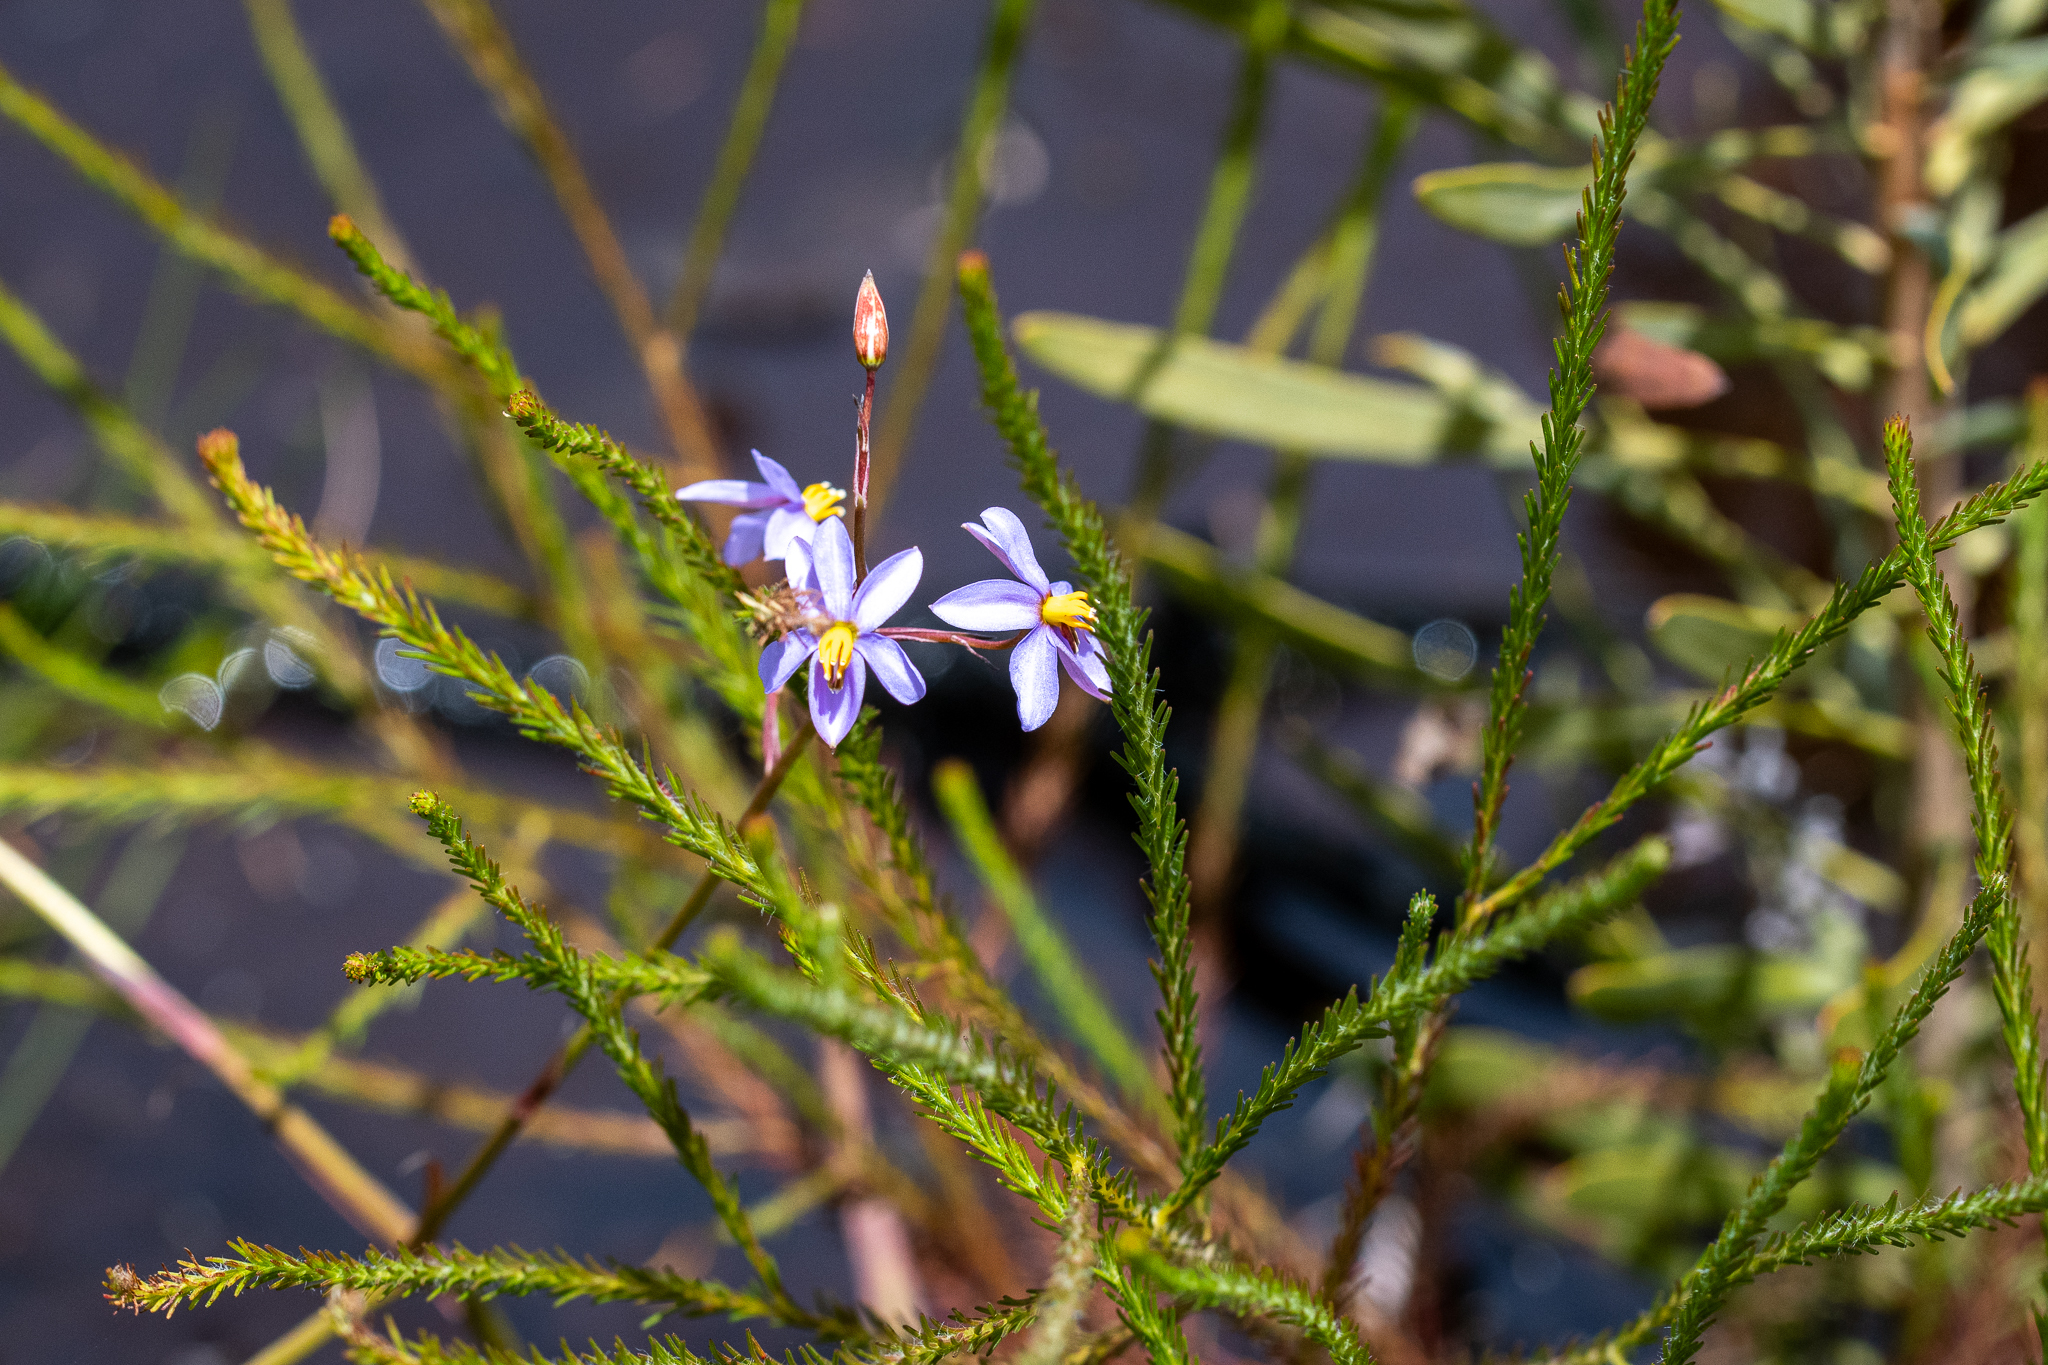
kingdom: Plantae
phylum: Tracheophyta
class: Liliopsida
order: Asparagales
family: Tecophilaeaceae
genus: Cyanella
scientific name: Cyanella hyacinthoides
